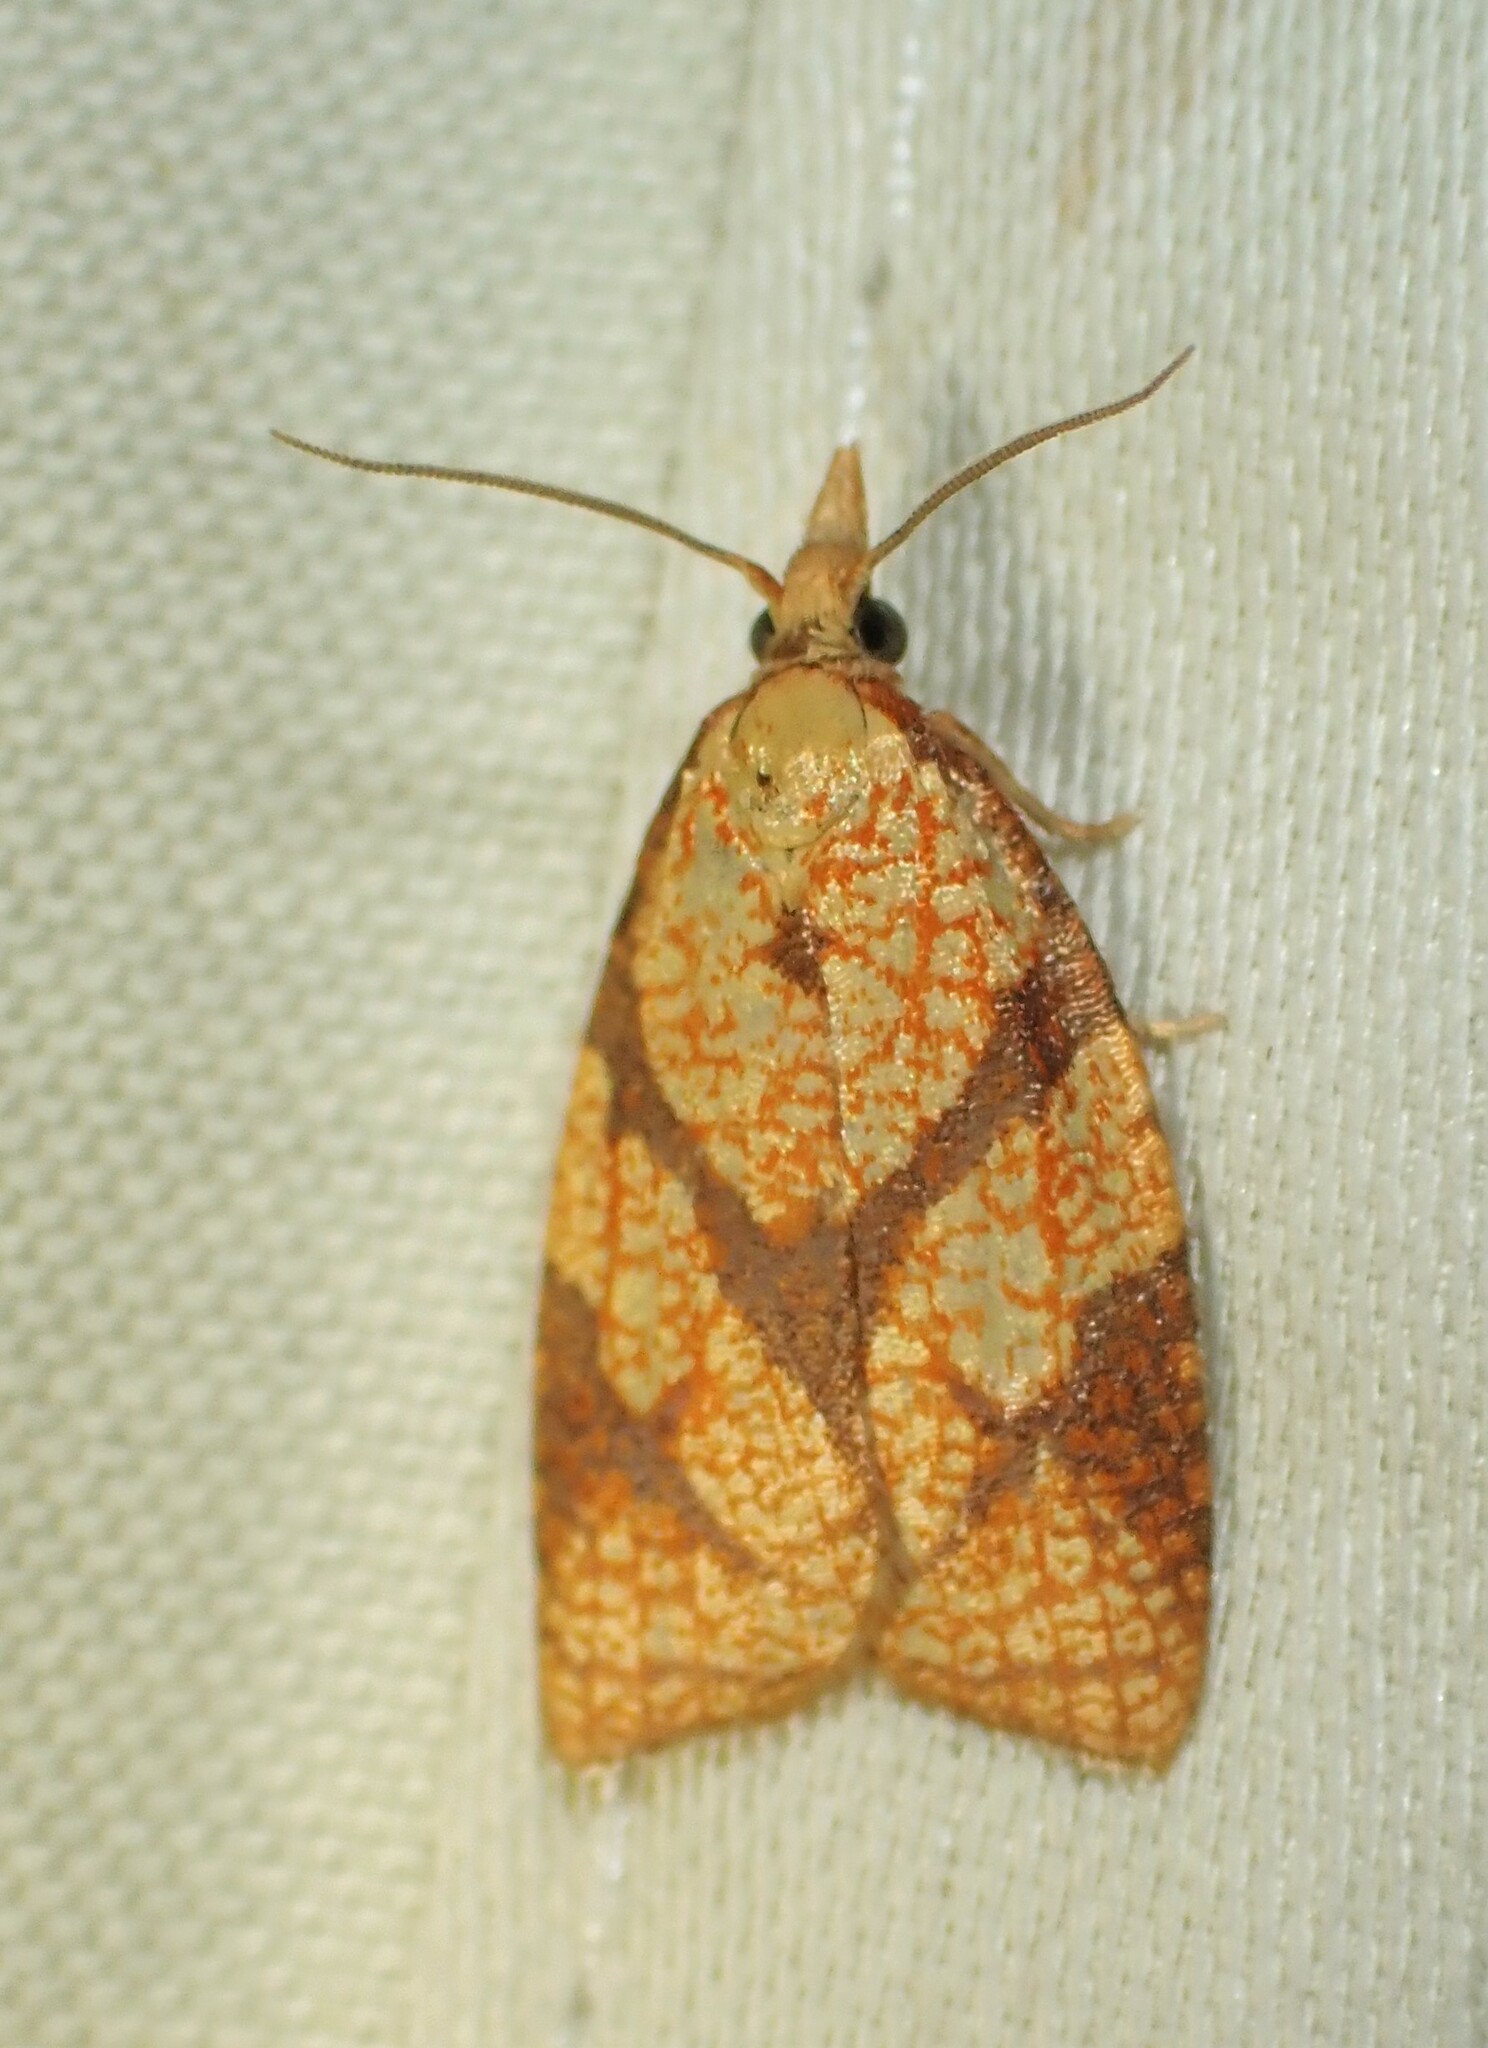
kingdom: Animalia
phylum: Arthropoda
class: Insecta
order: Lepidoptera
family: Tortricidae
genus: Cenopis
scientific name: Cenopis reticulatana
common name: Reticulated fruitworm moth
